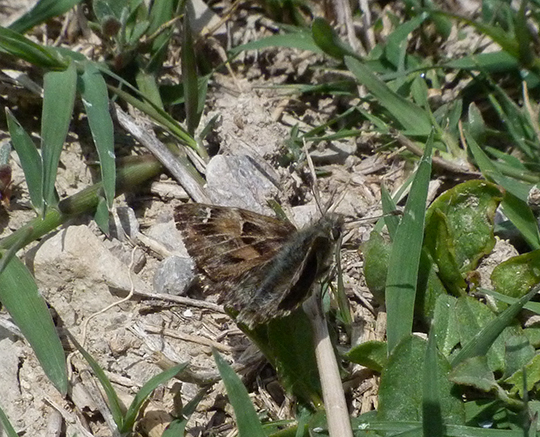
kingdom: Animalia
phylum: Arthropoda
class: Insecta
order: Lepidoptera
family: Hesperiidae
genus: Carcharodus
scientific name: Carcharodus alceae
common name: Mallow skipper
